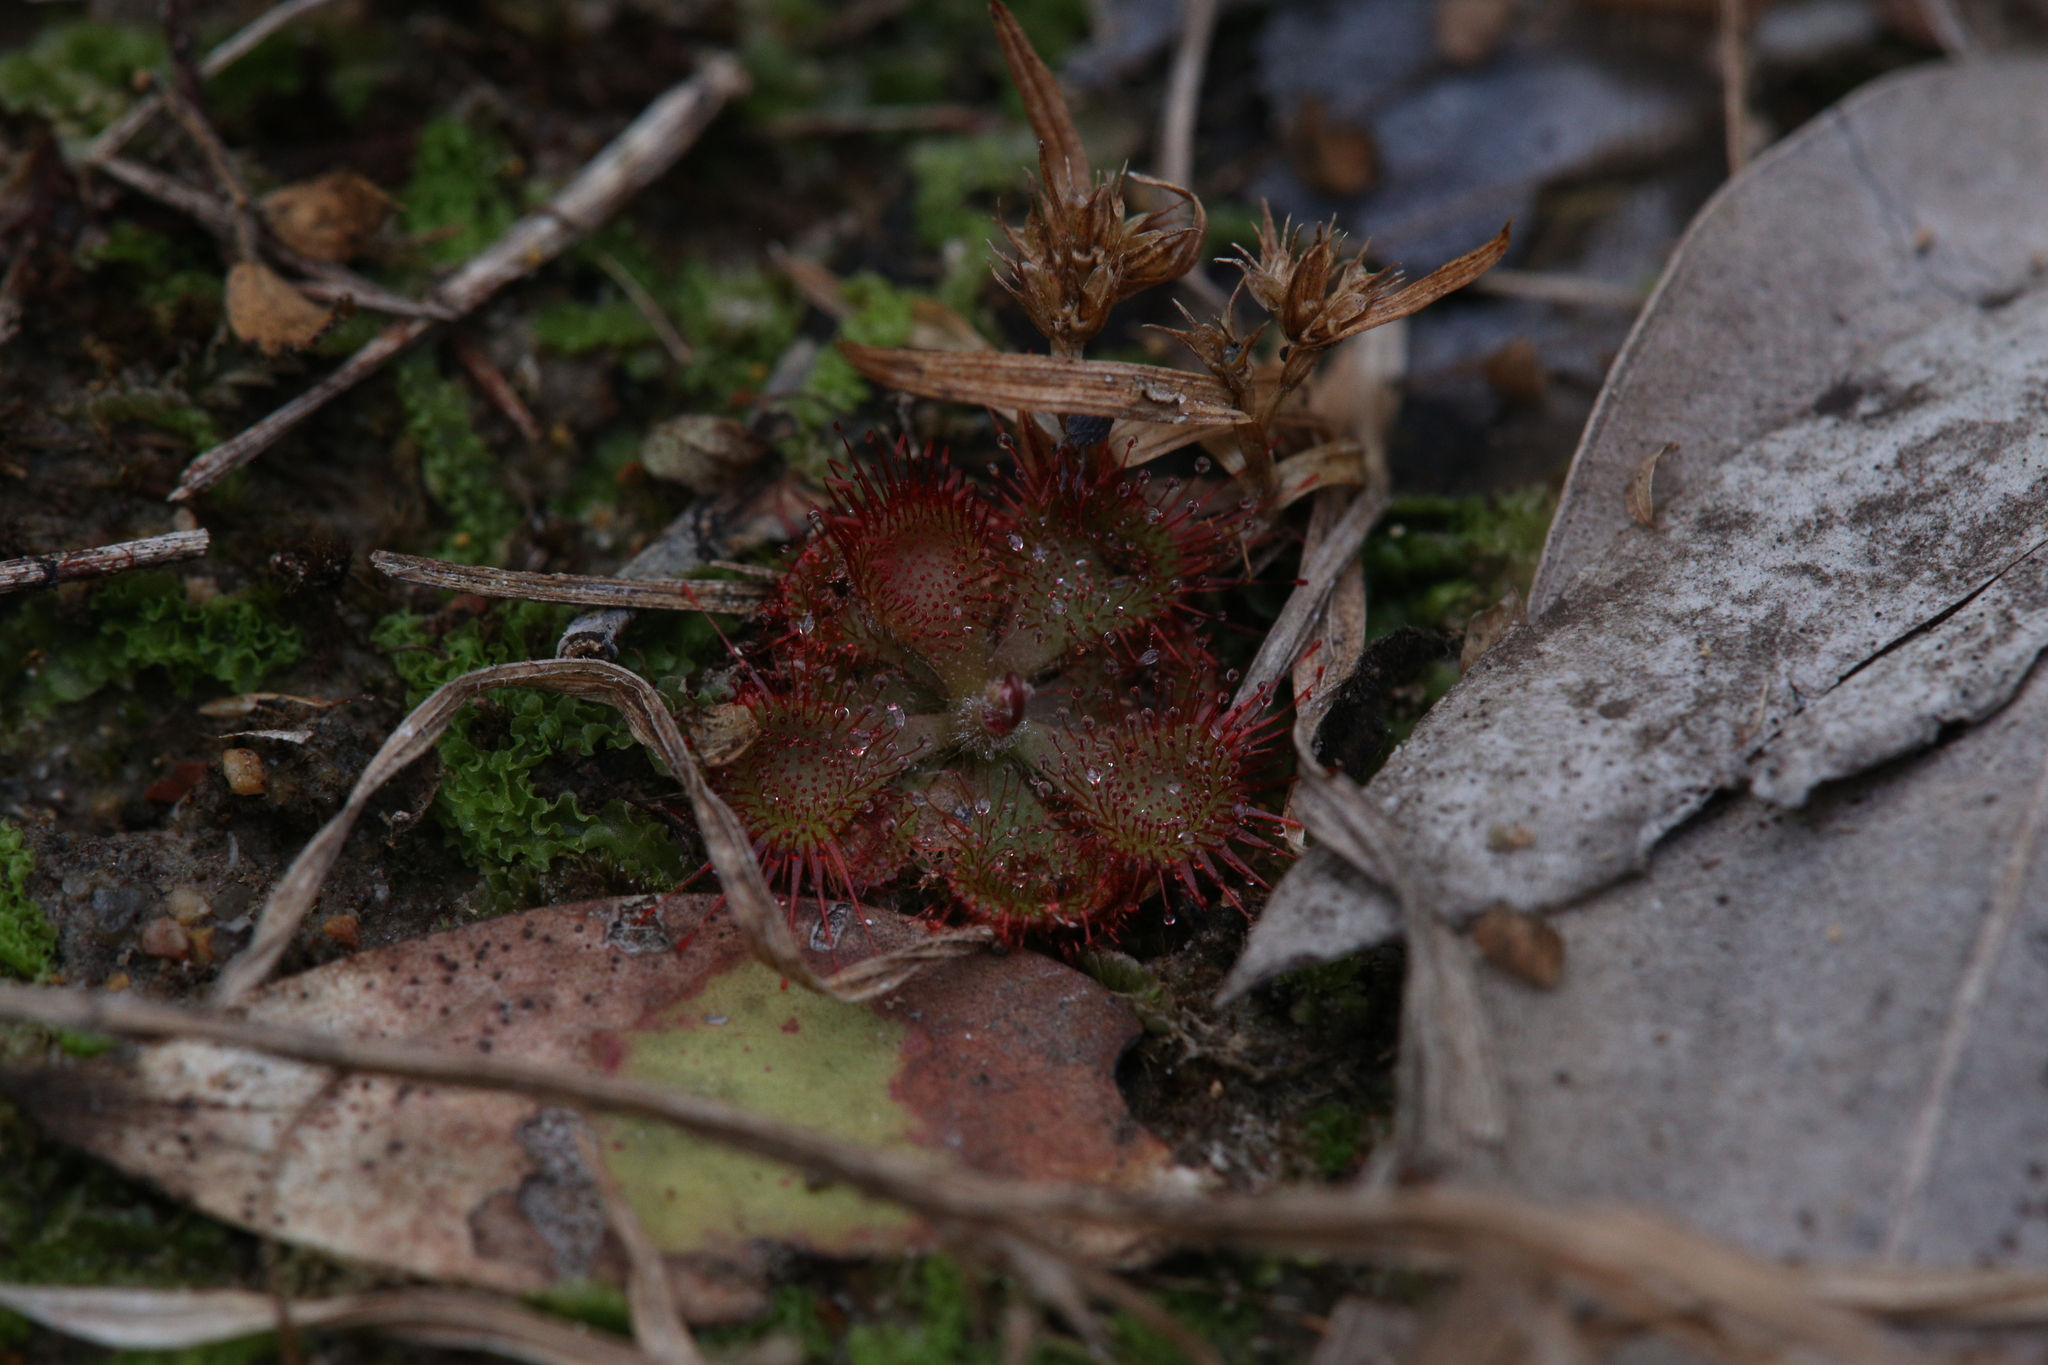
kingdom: Plantae
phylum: Tracheophyta
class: Magnoliopsida
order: Caryophyllales
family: Droseraceae
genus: Drosera
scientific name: Drosera spatulata
